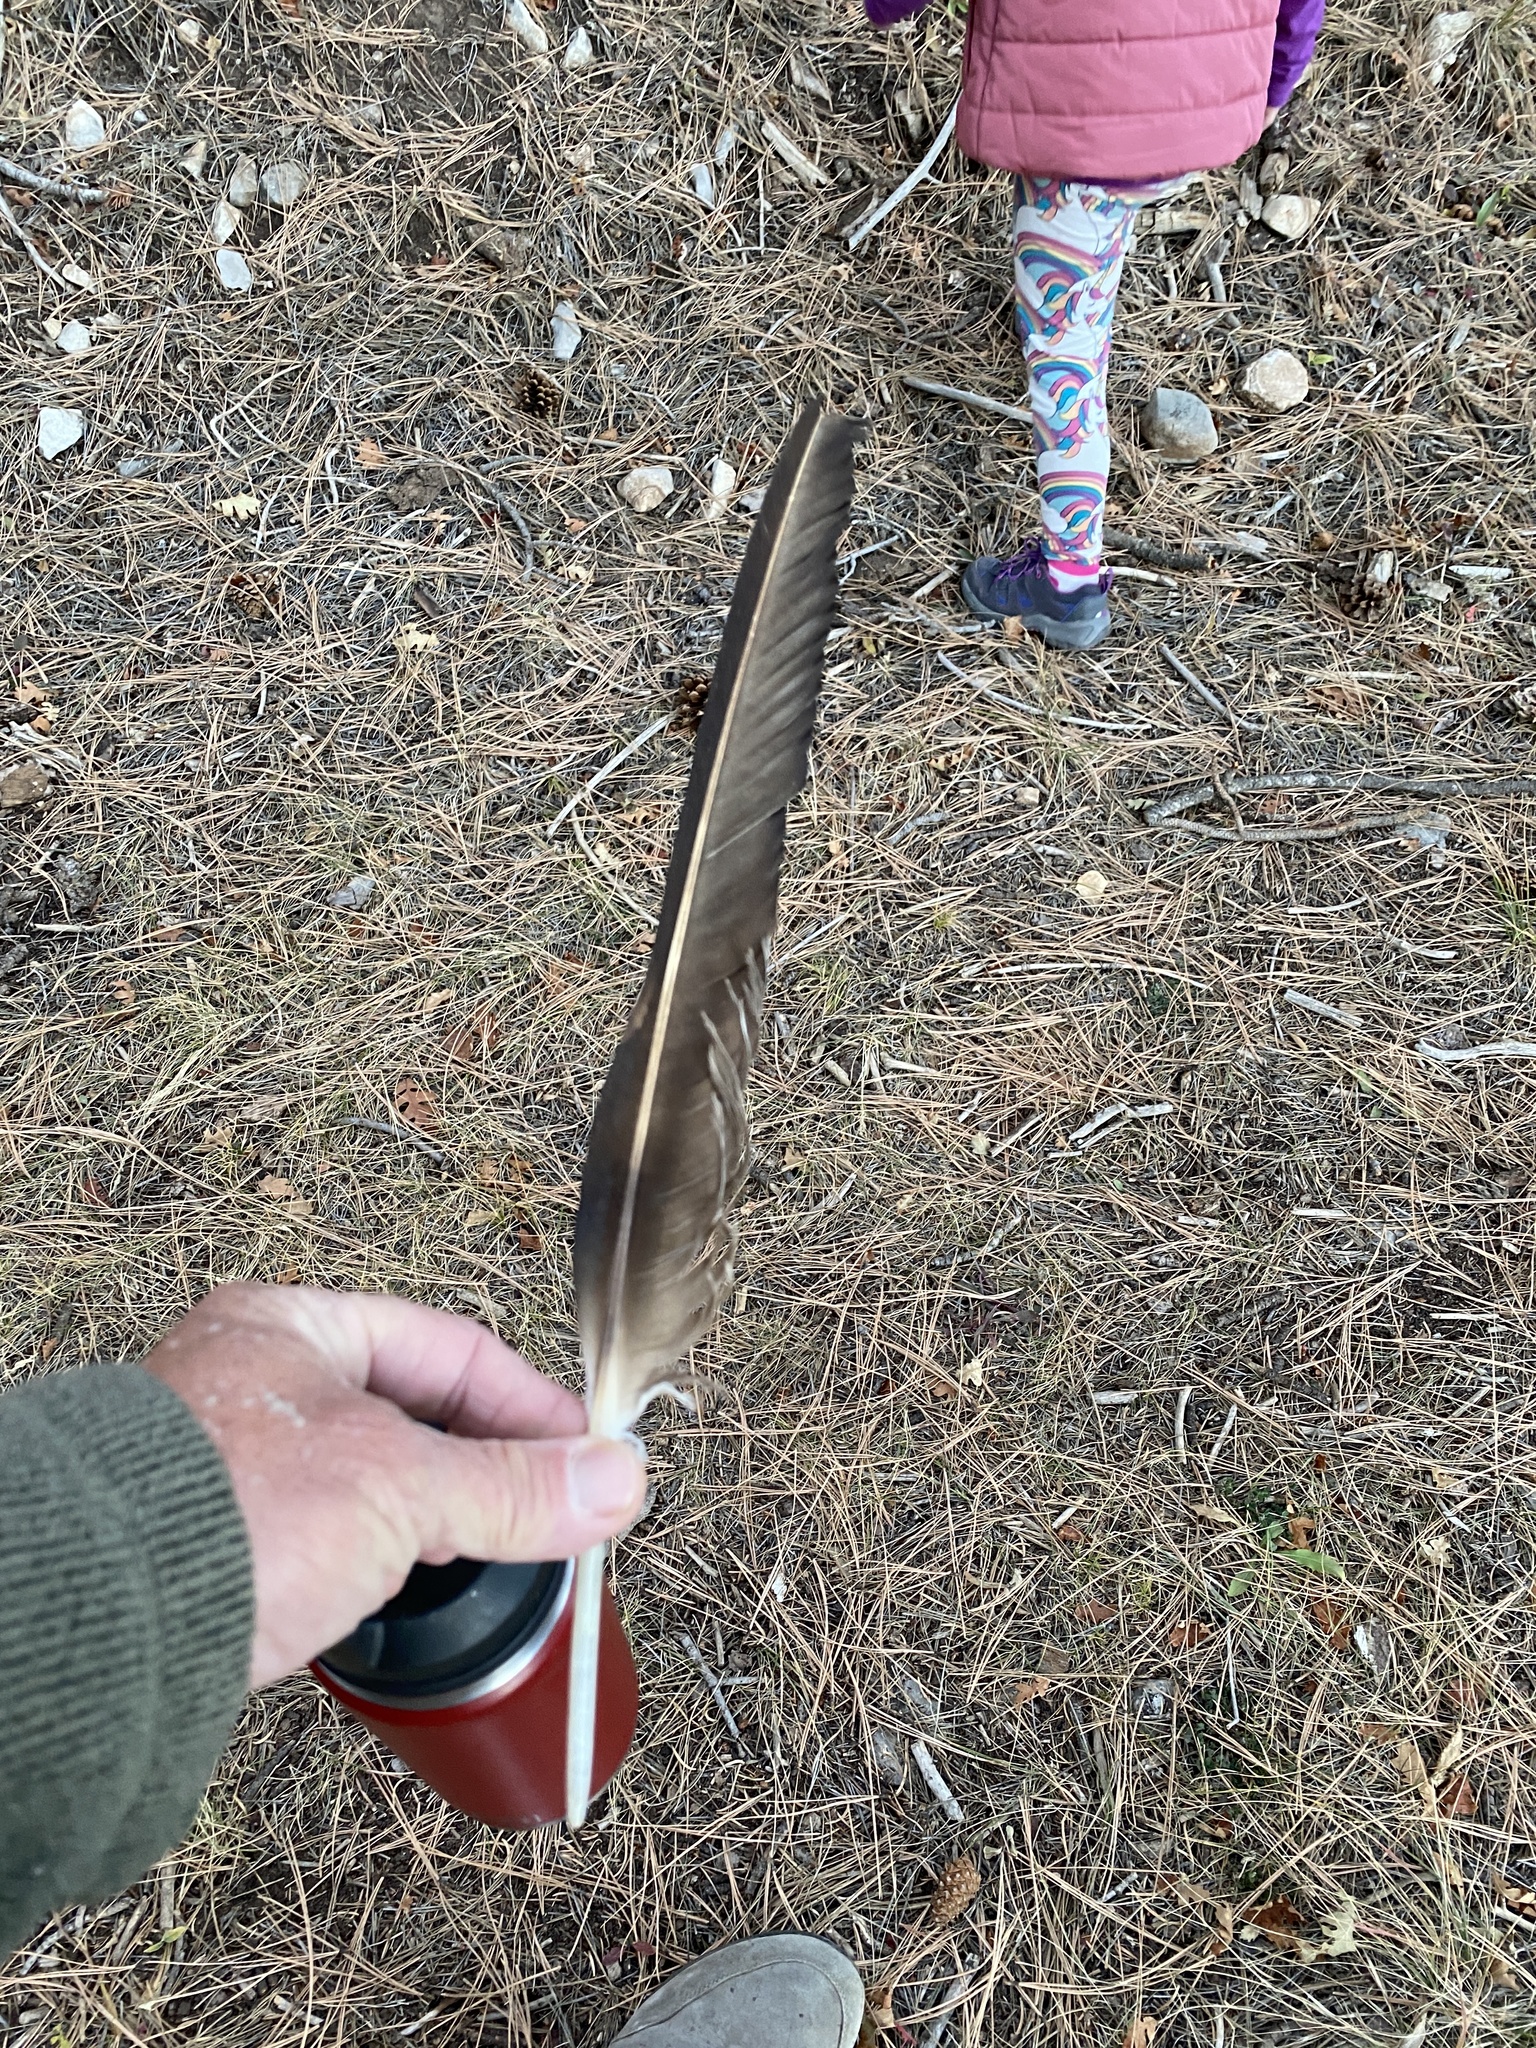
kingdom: Animalia
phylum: Chordata
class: Aves
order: Accipitriformes
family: Cathartidae
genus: Cathartes
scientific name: Cathartes aura
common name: Turkey vulture
